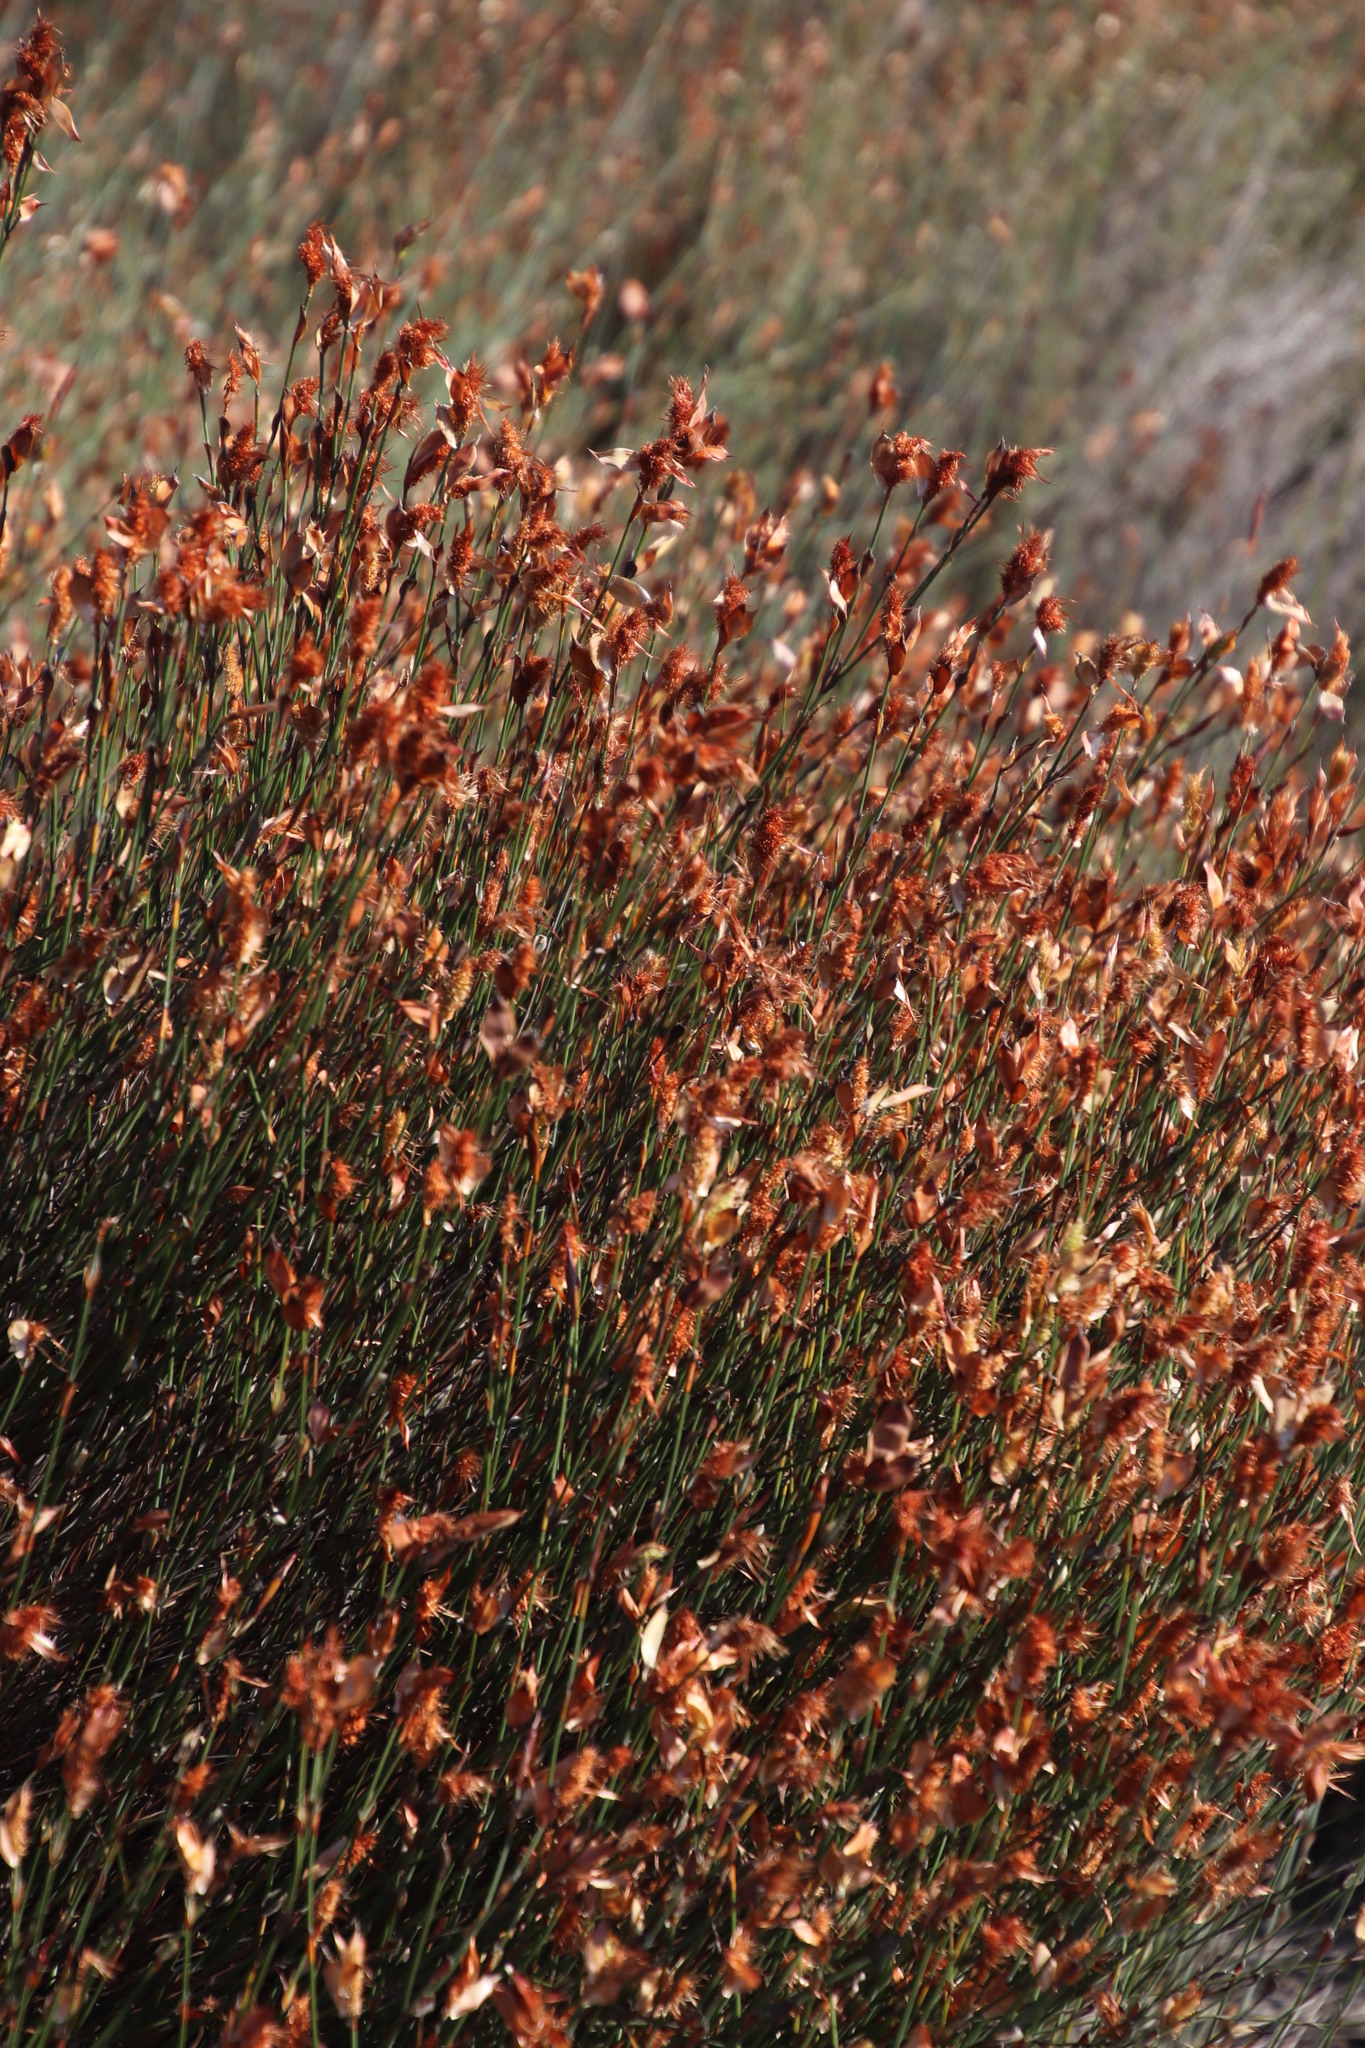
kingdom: Plantae
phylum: Tracheophyta
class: Liliopsida
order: Poales
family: Restionaceae
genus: Willdenowia
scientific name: Willdenowia incurvata
